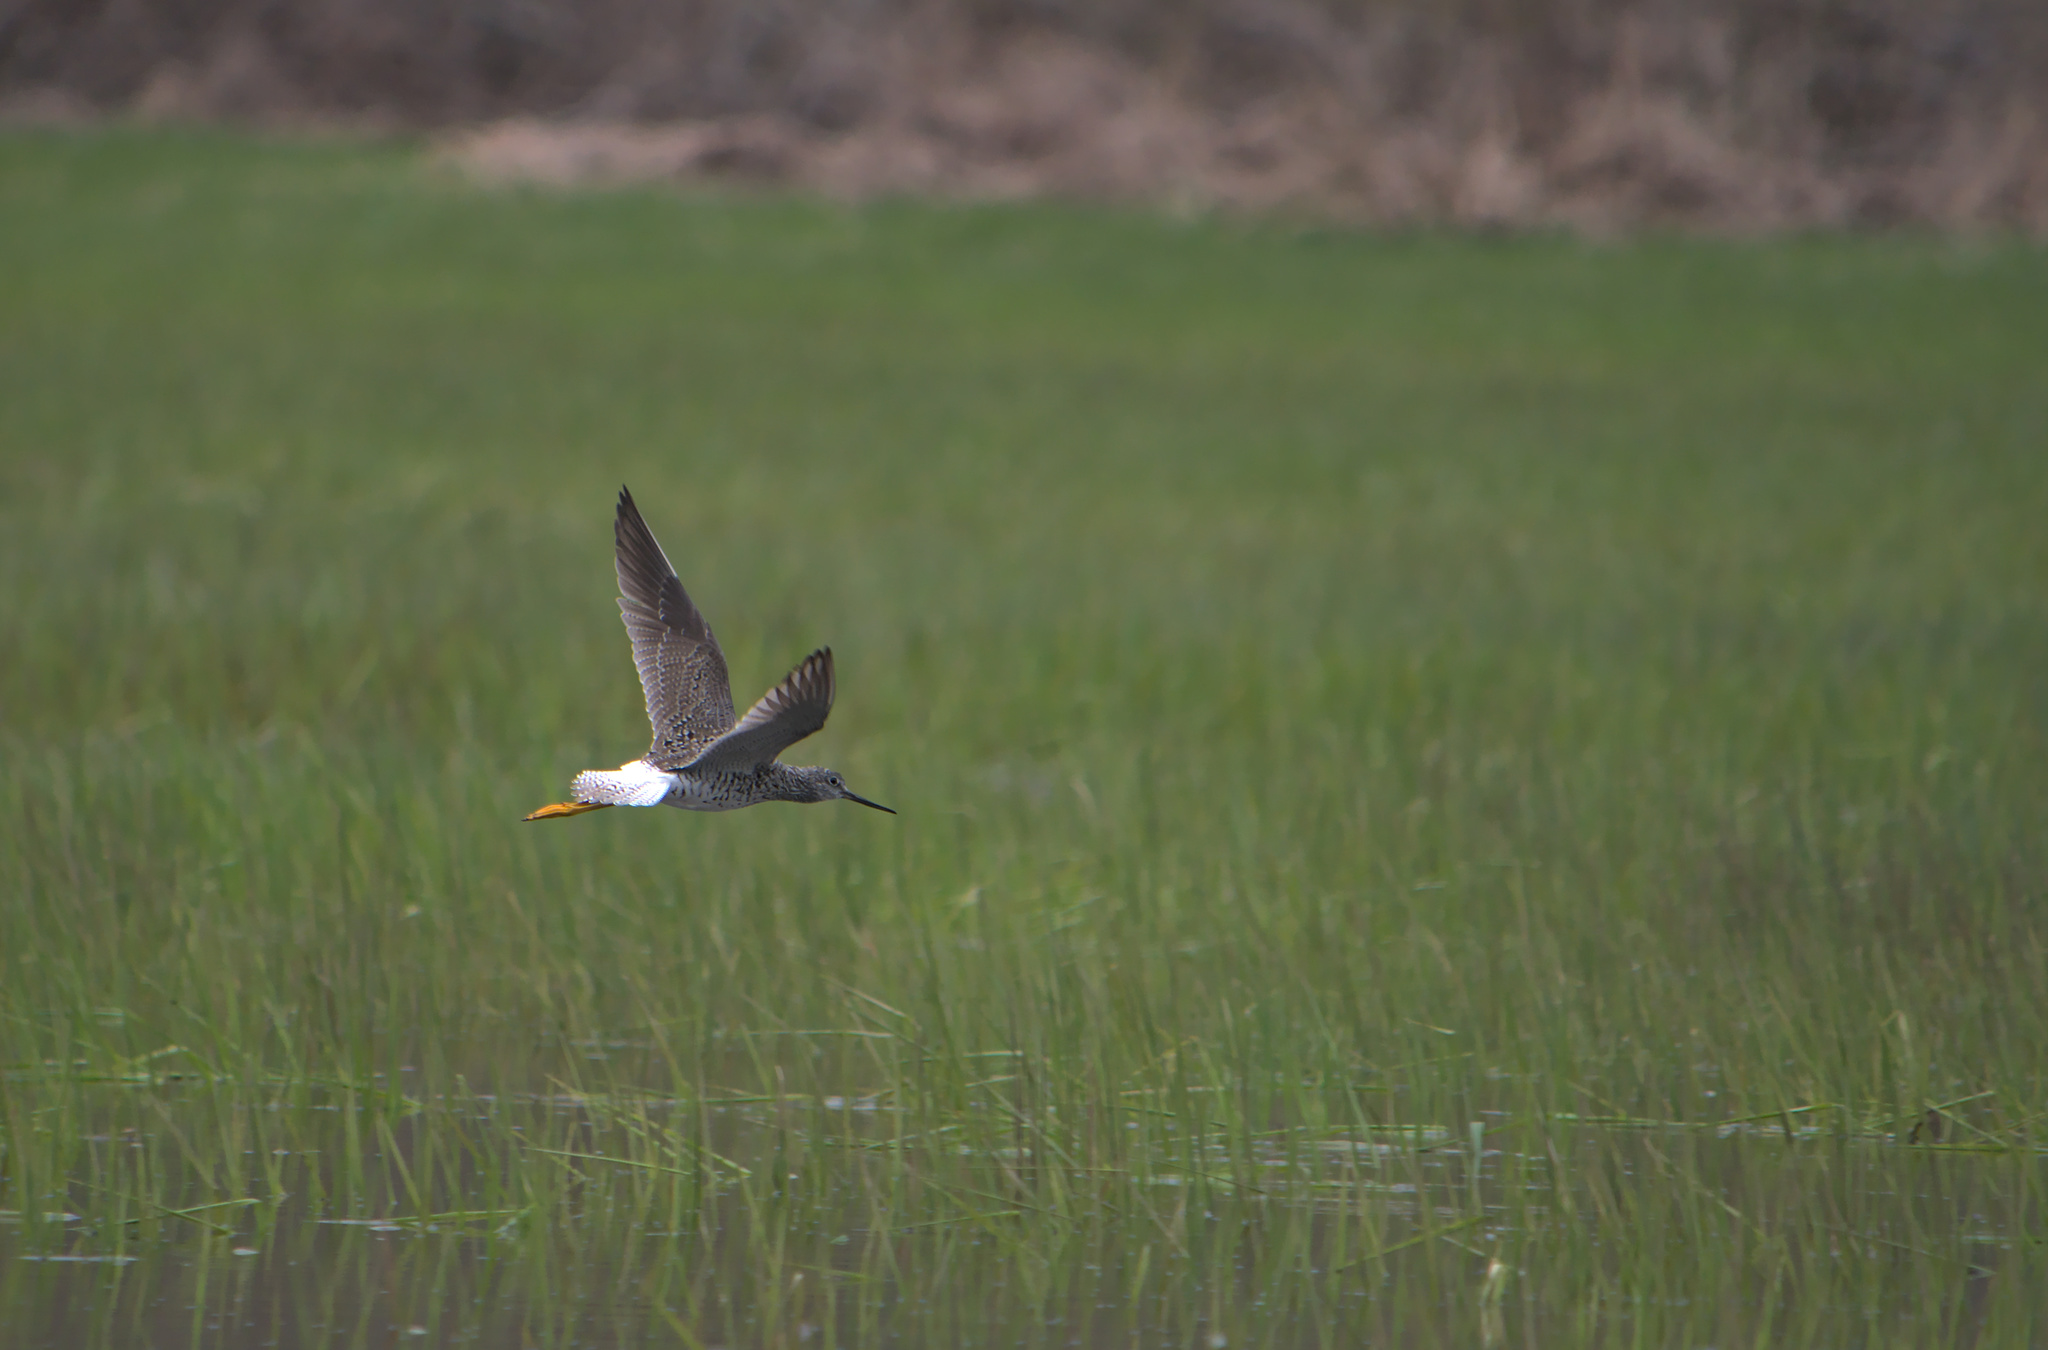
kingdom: Animalia
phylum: Chordata
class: Aves
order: Charadriiformes
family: Scolopacidae
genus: Tringa
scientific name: Tringa melanoleuca
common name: Greater yellowlegs
